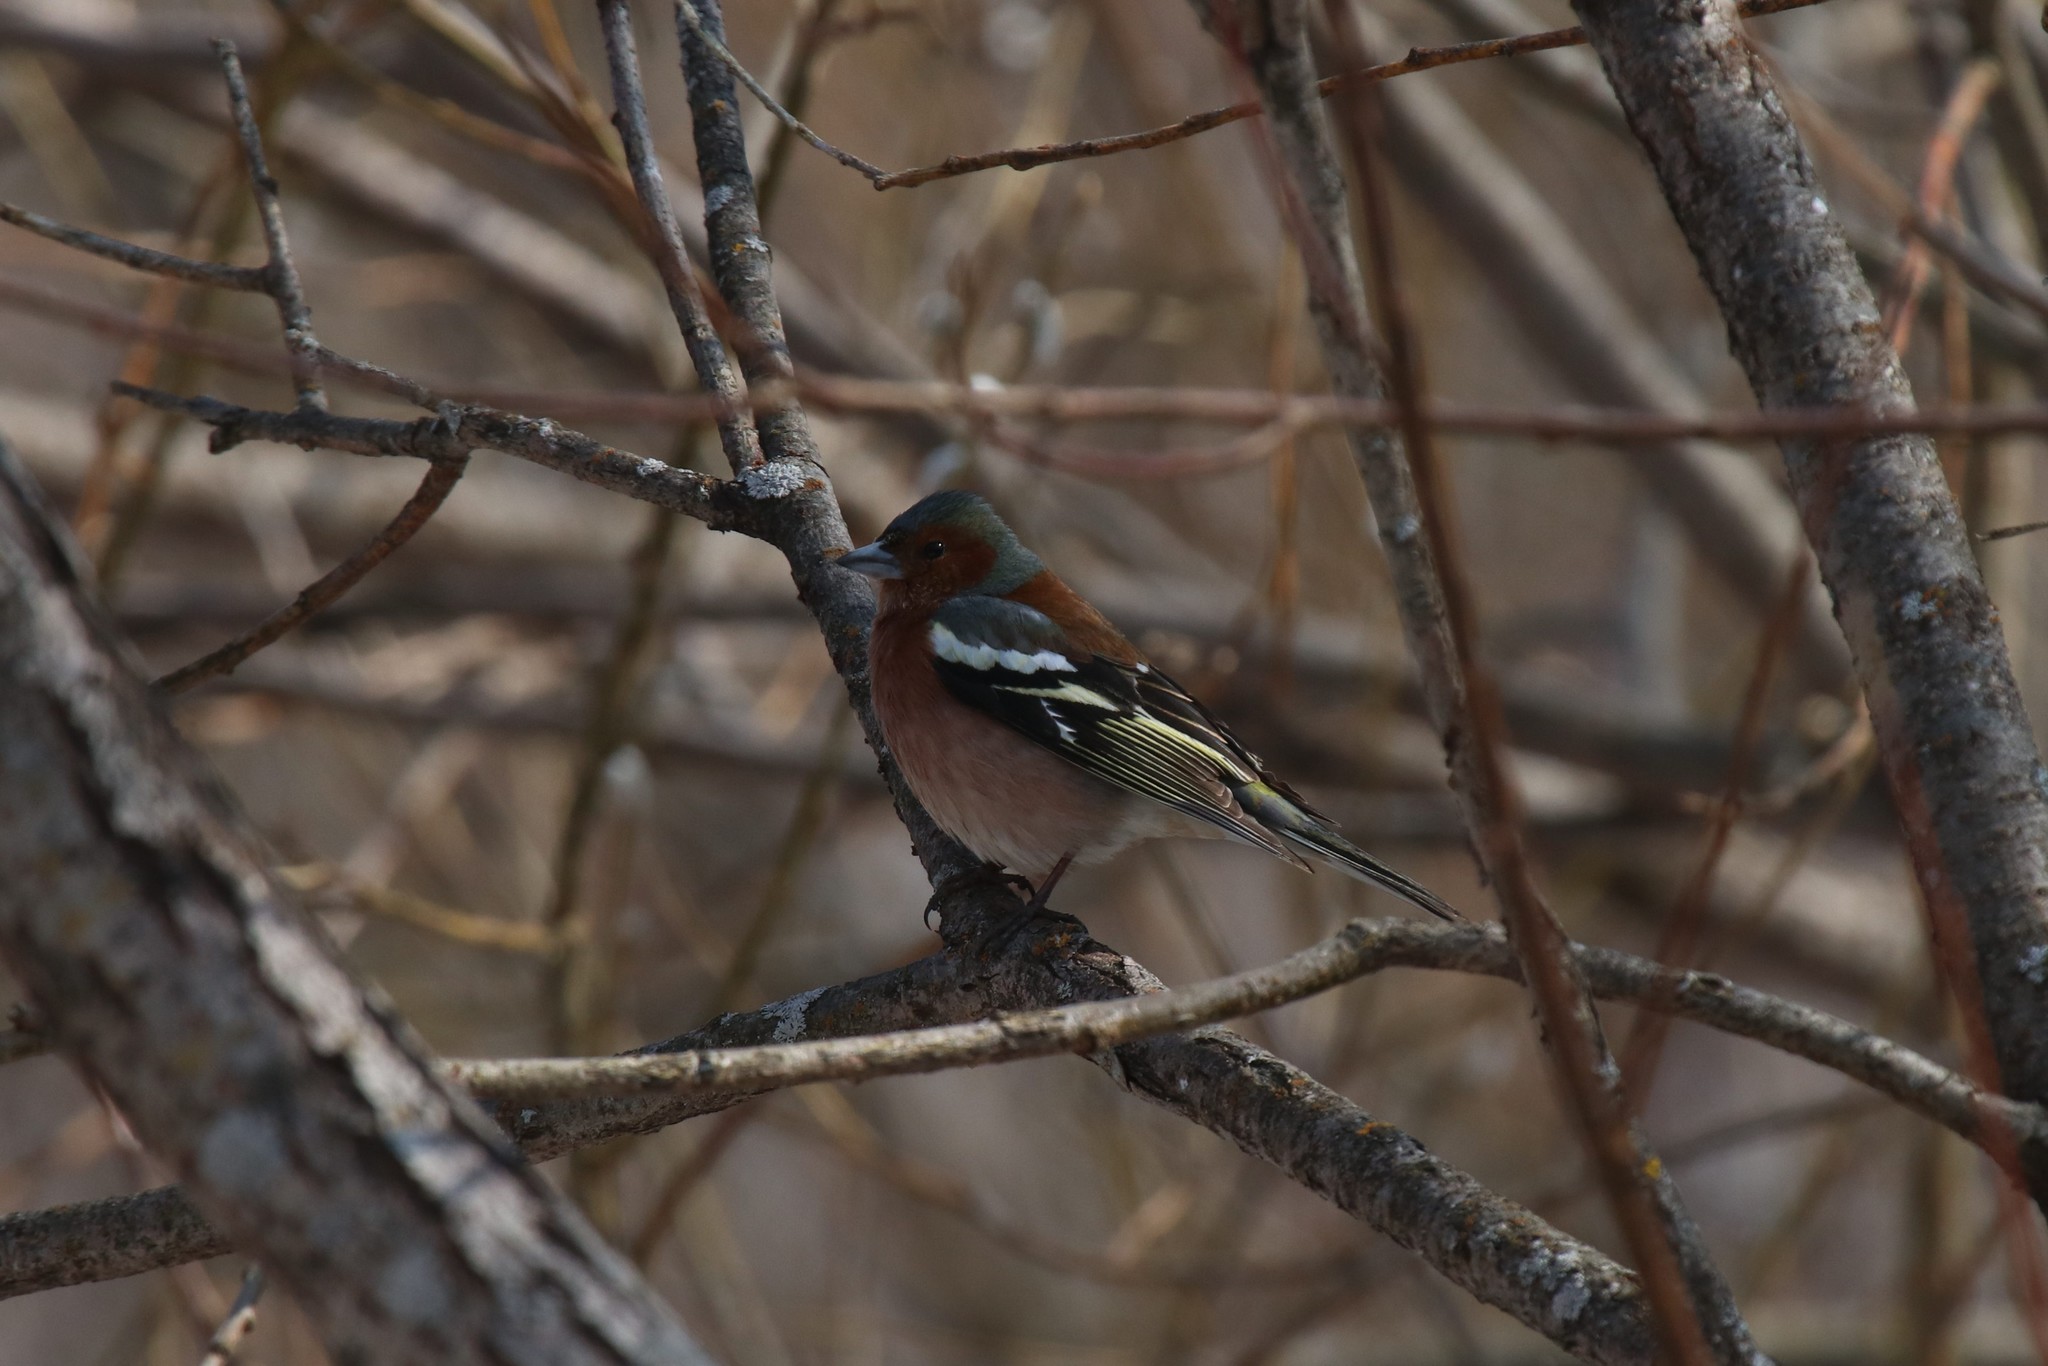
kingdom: Animalia
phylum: Chordata
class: Aves
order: Passeriformes
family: Fringillidae
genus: Fringilla
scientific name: Fringilla coelebs
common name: Common chaffinch
